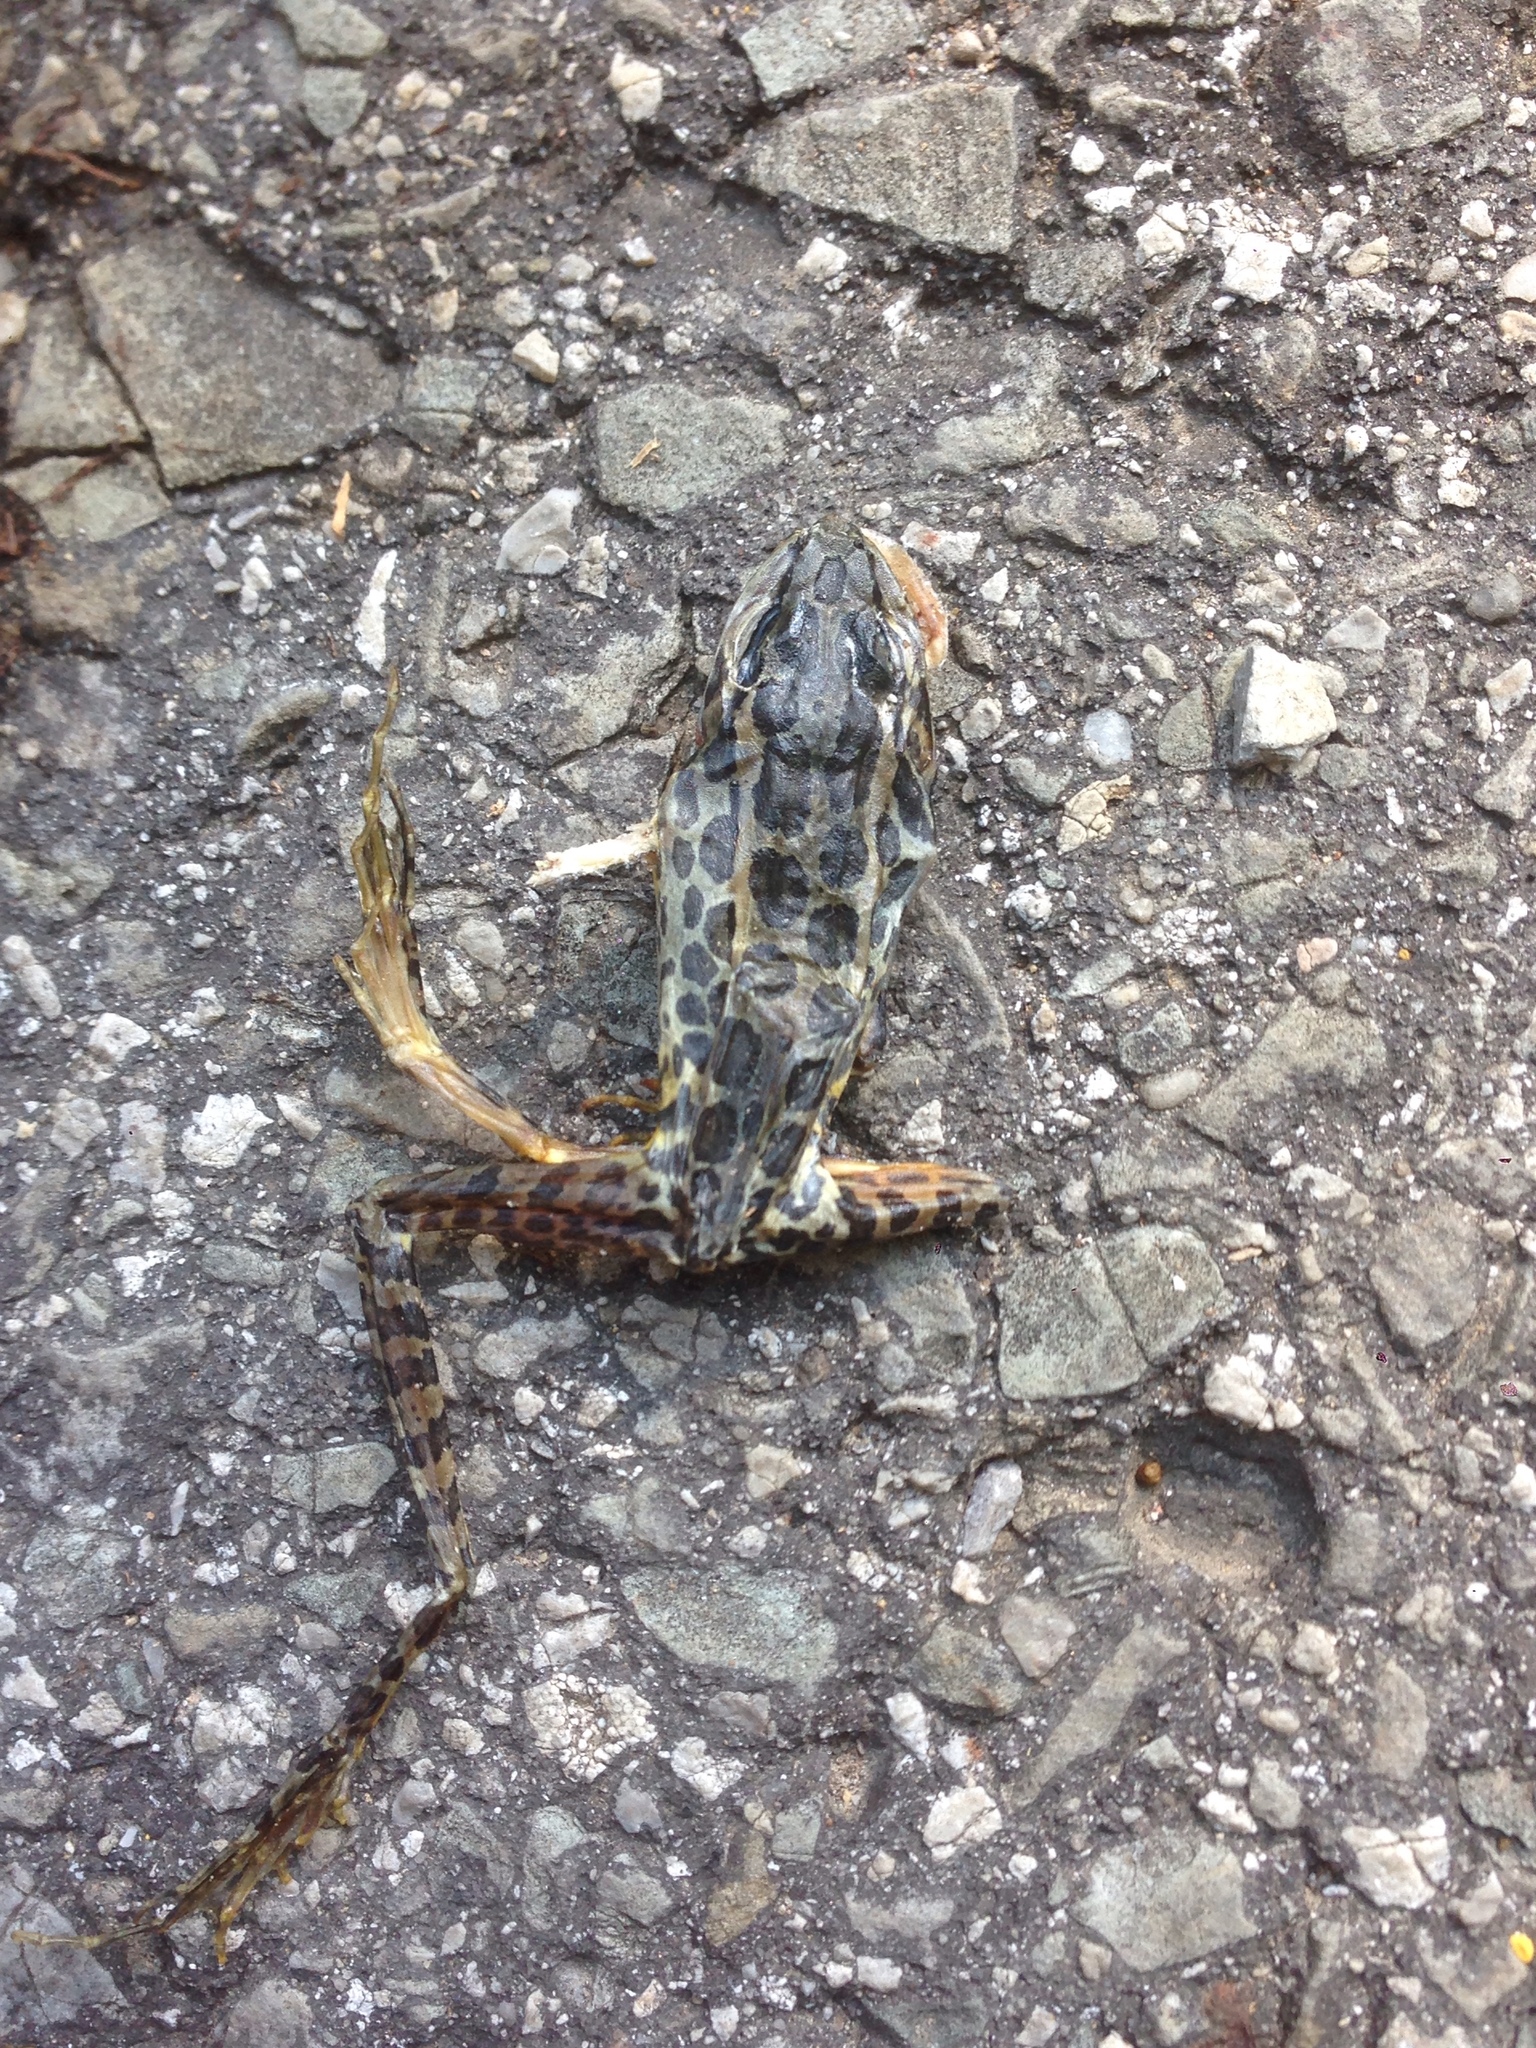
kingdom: Animalia
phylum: Chordata
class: Amphibia
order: Anura
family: Ranidae
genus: Lithobates
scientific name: Lithobates palustris
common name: Pickerel frog
